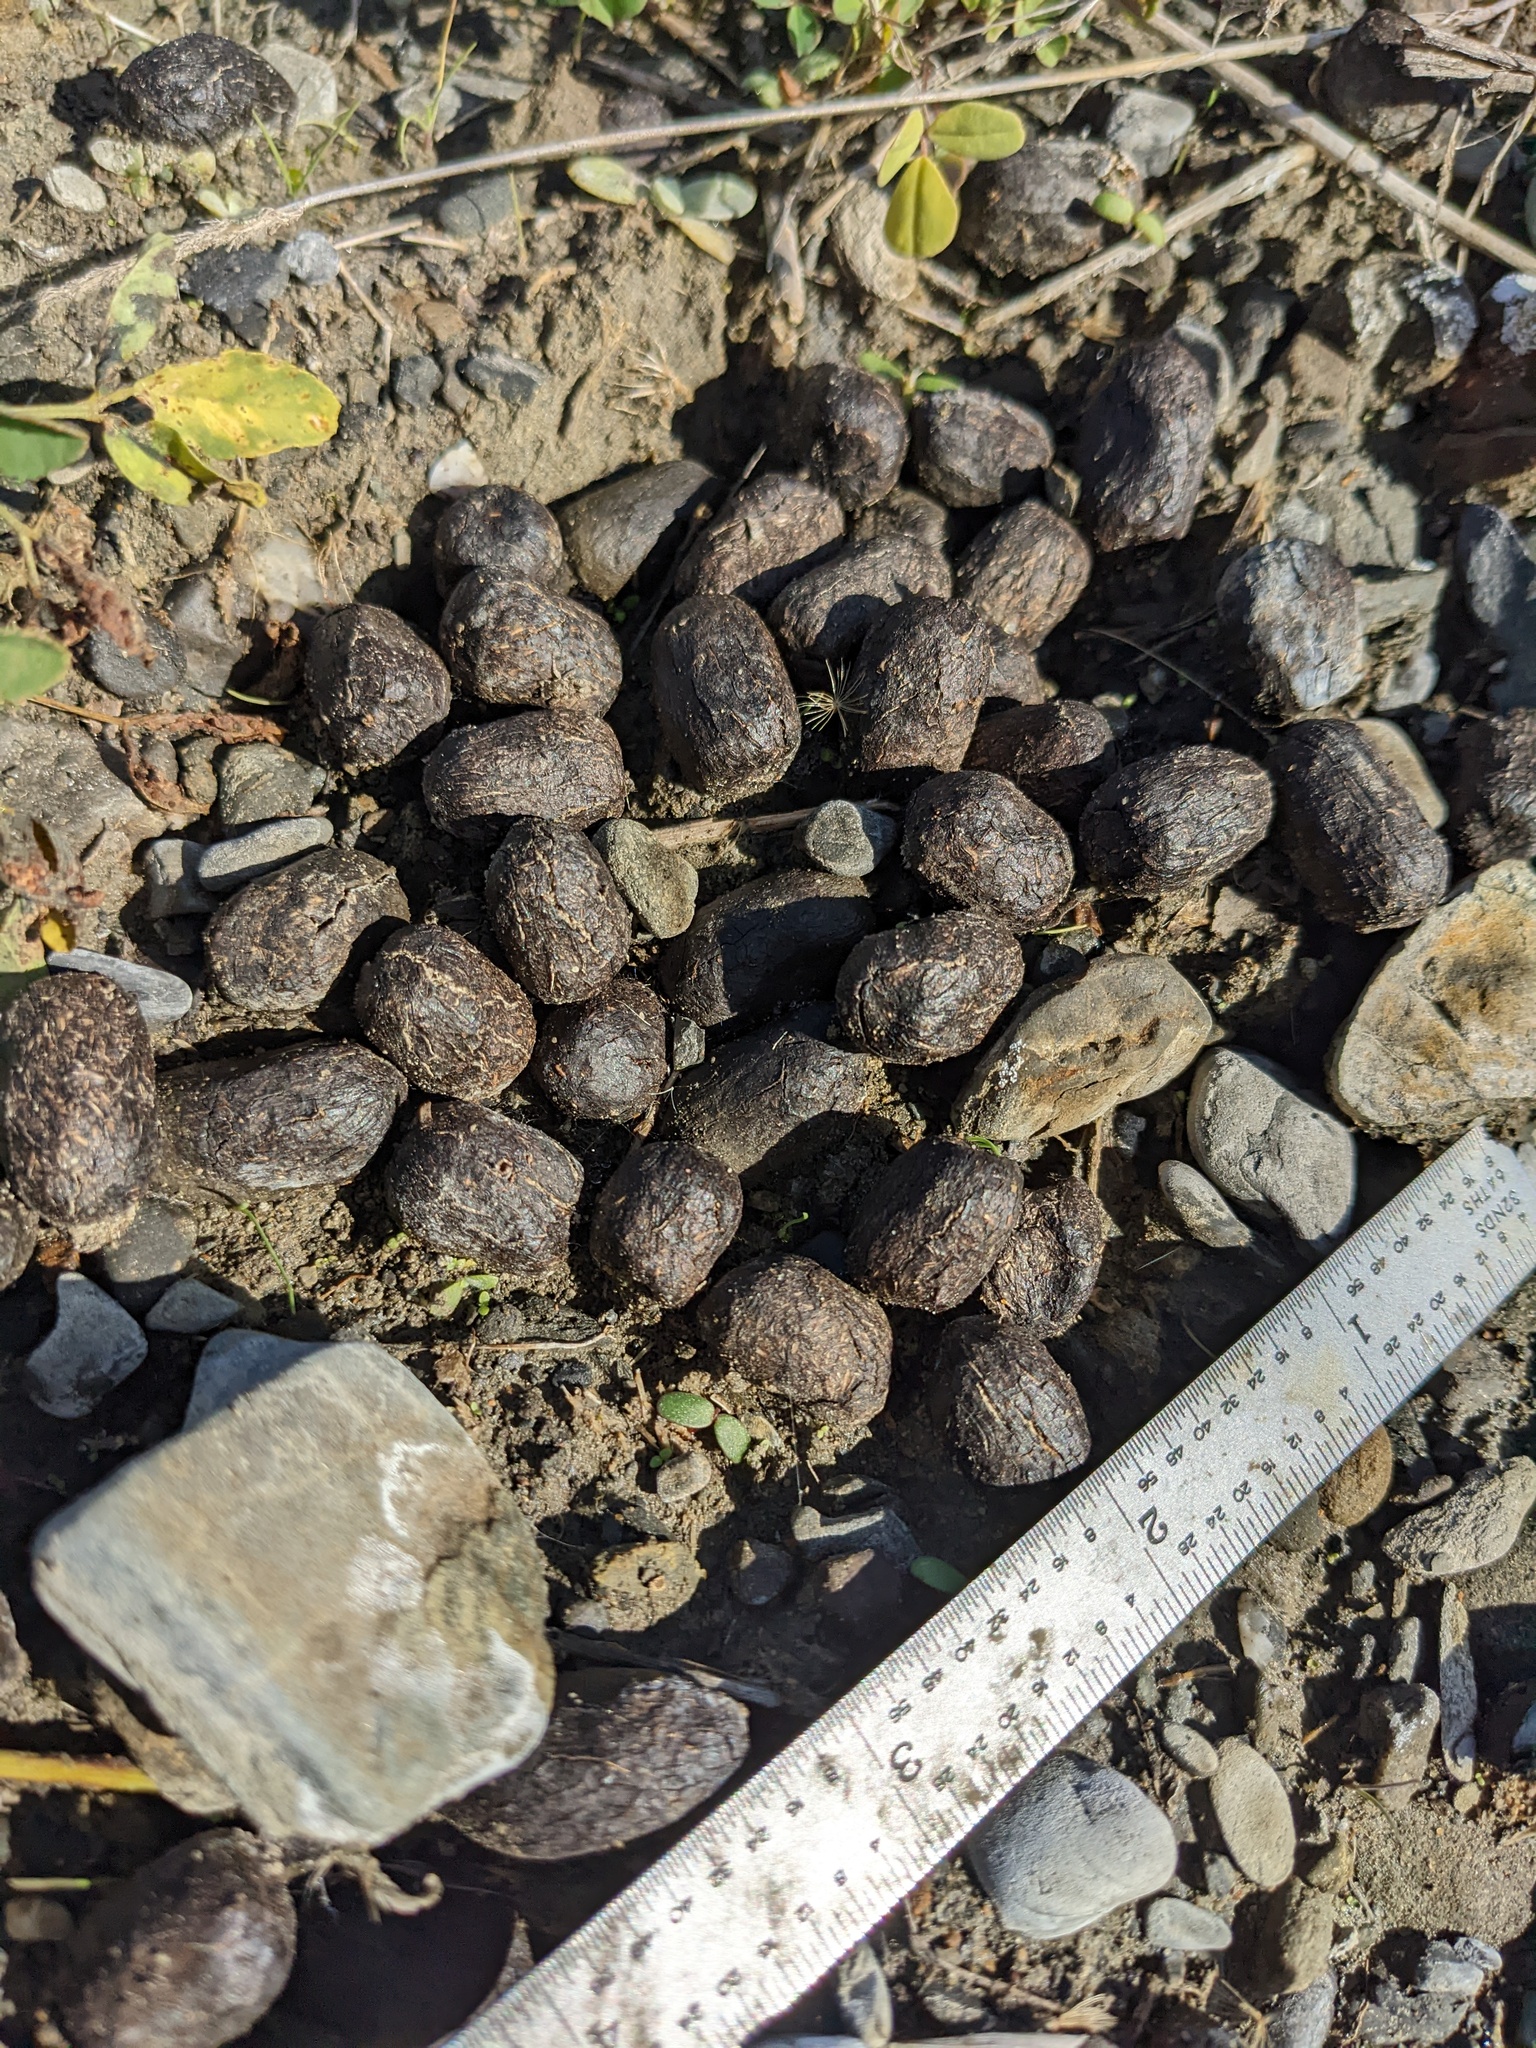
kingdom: Animalia
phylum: Chordata
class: Mammalia
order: Artiodactyla
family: Cervidae
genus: Cervus
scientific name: Cervus elaphus
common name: Red deer
